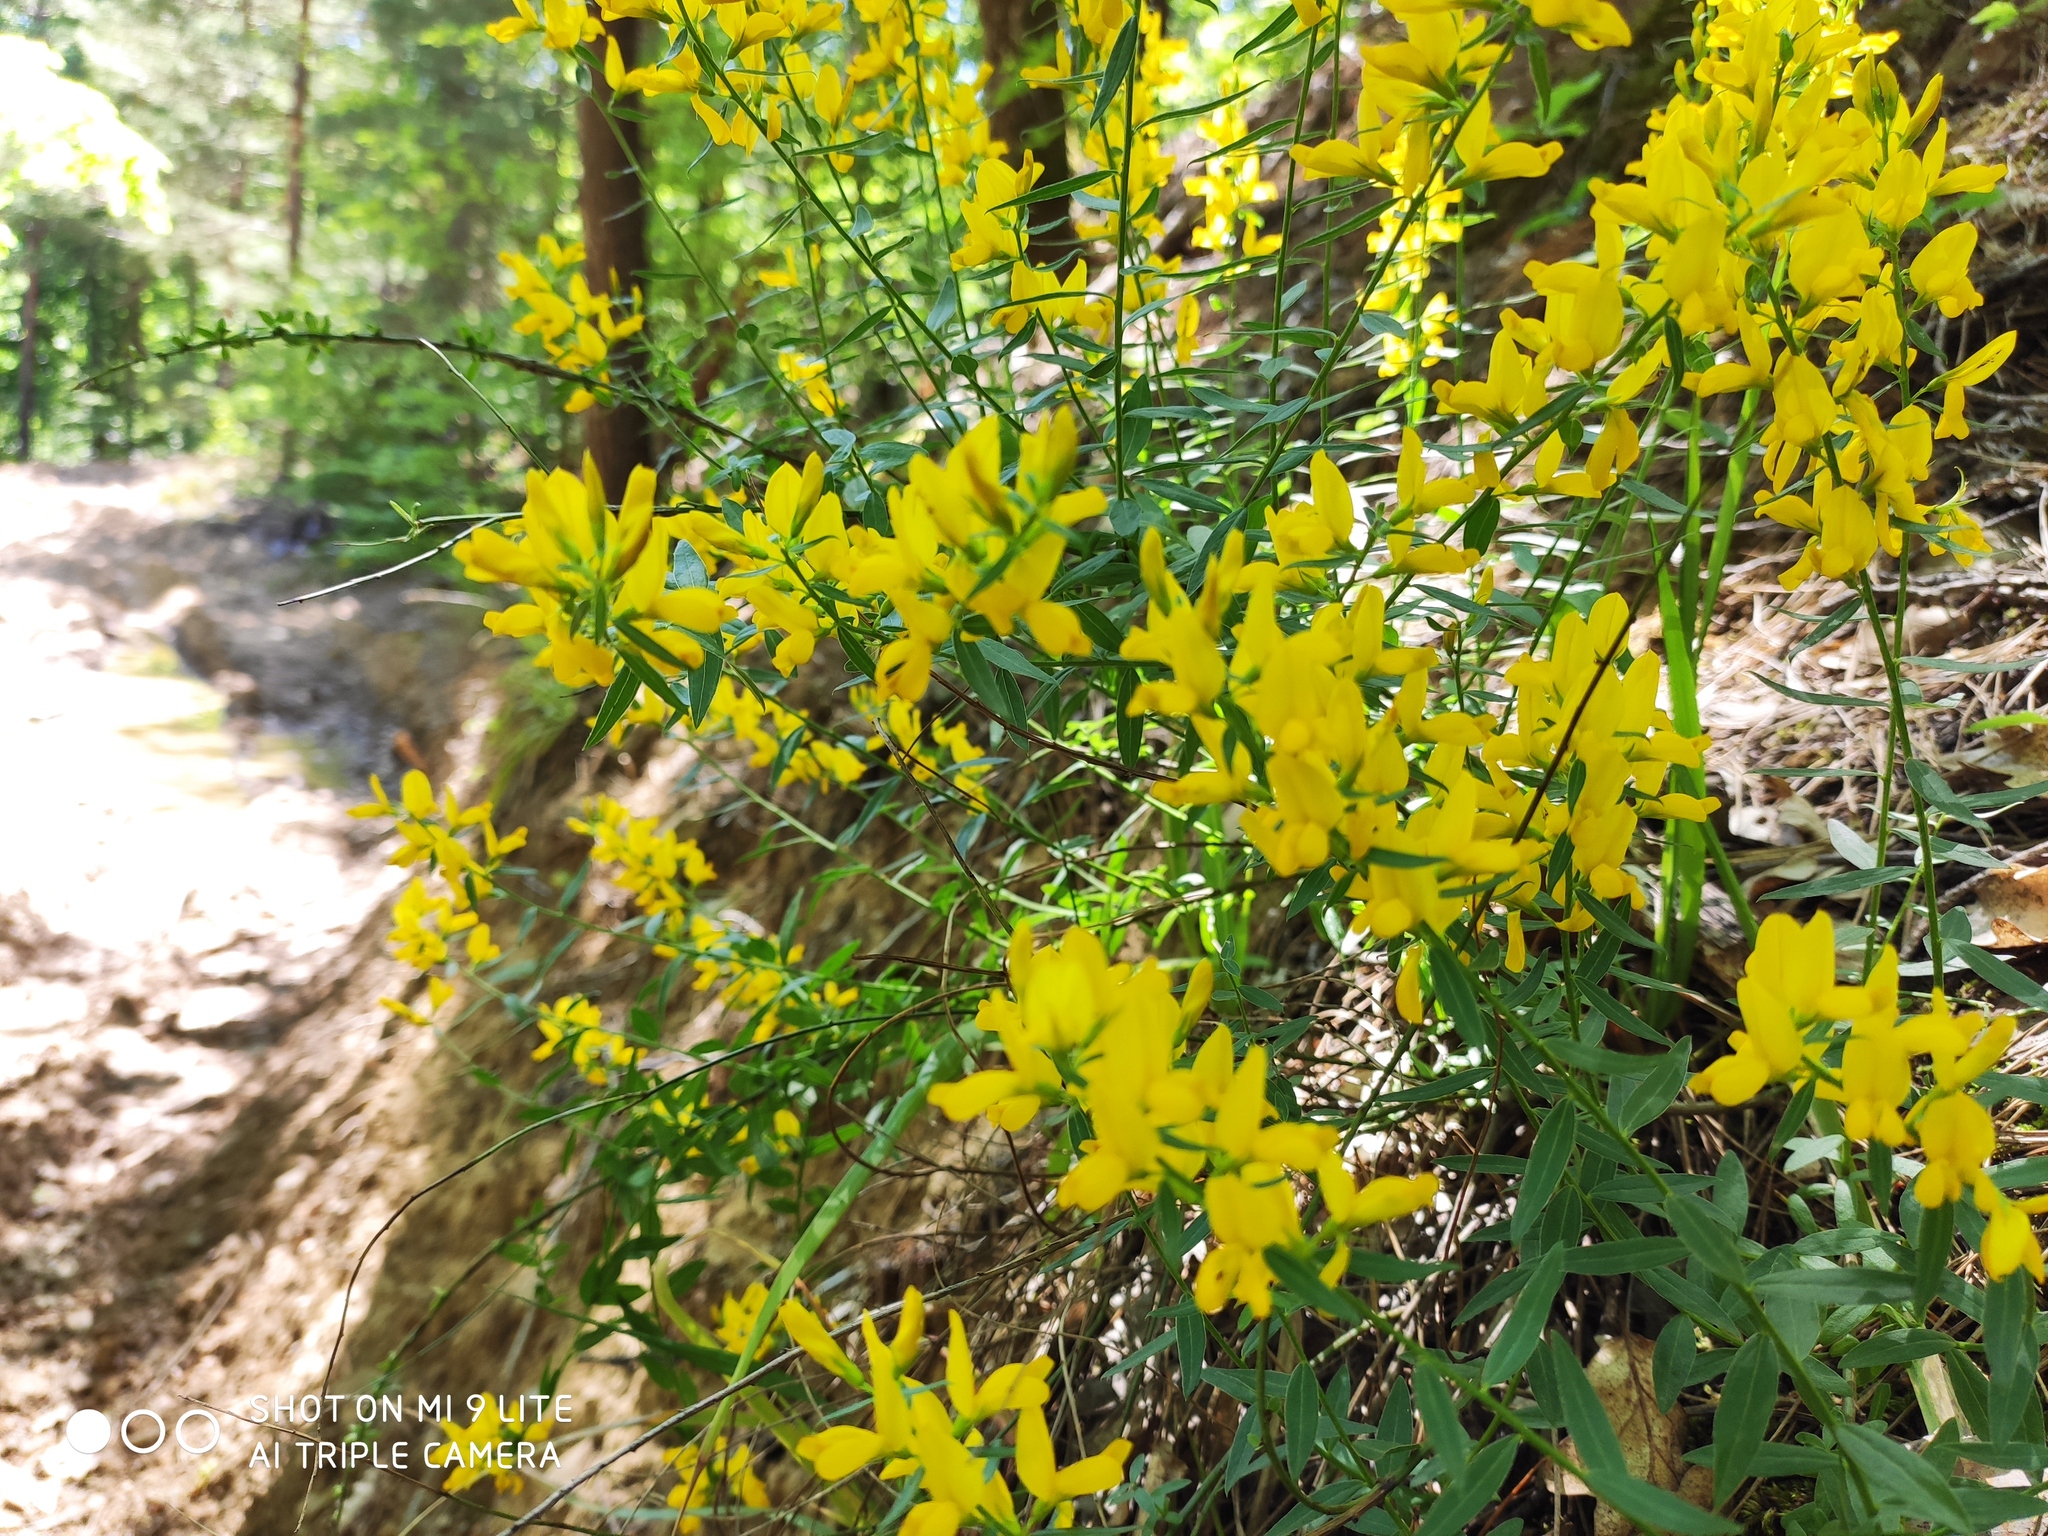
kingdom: Plantae
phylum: Tracheophyta
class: Magnoliopsida
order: Fabales
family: Fabaceae
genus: Genista
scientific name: Genista tinctoria
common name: Dyer's greenweed
